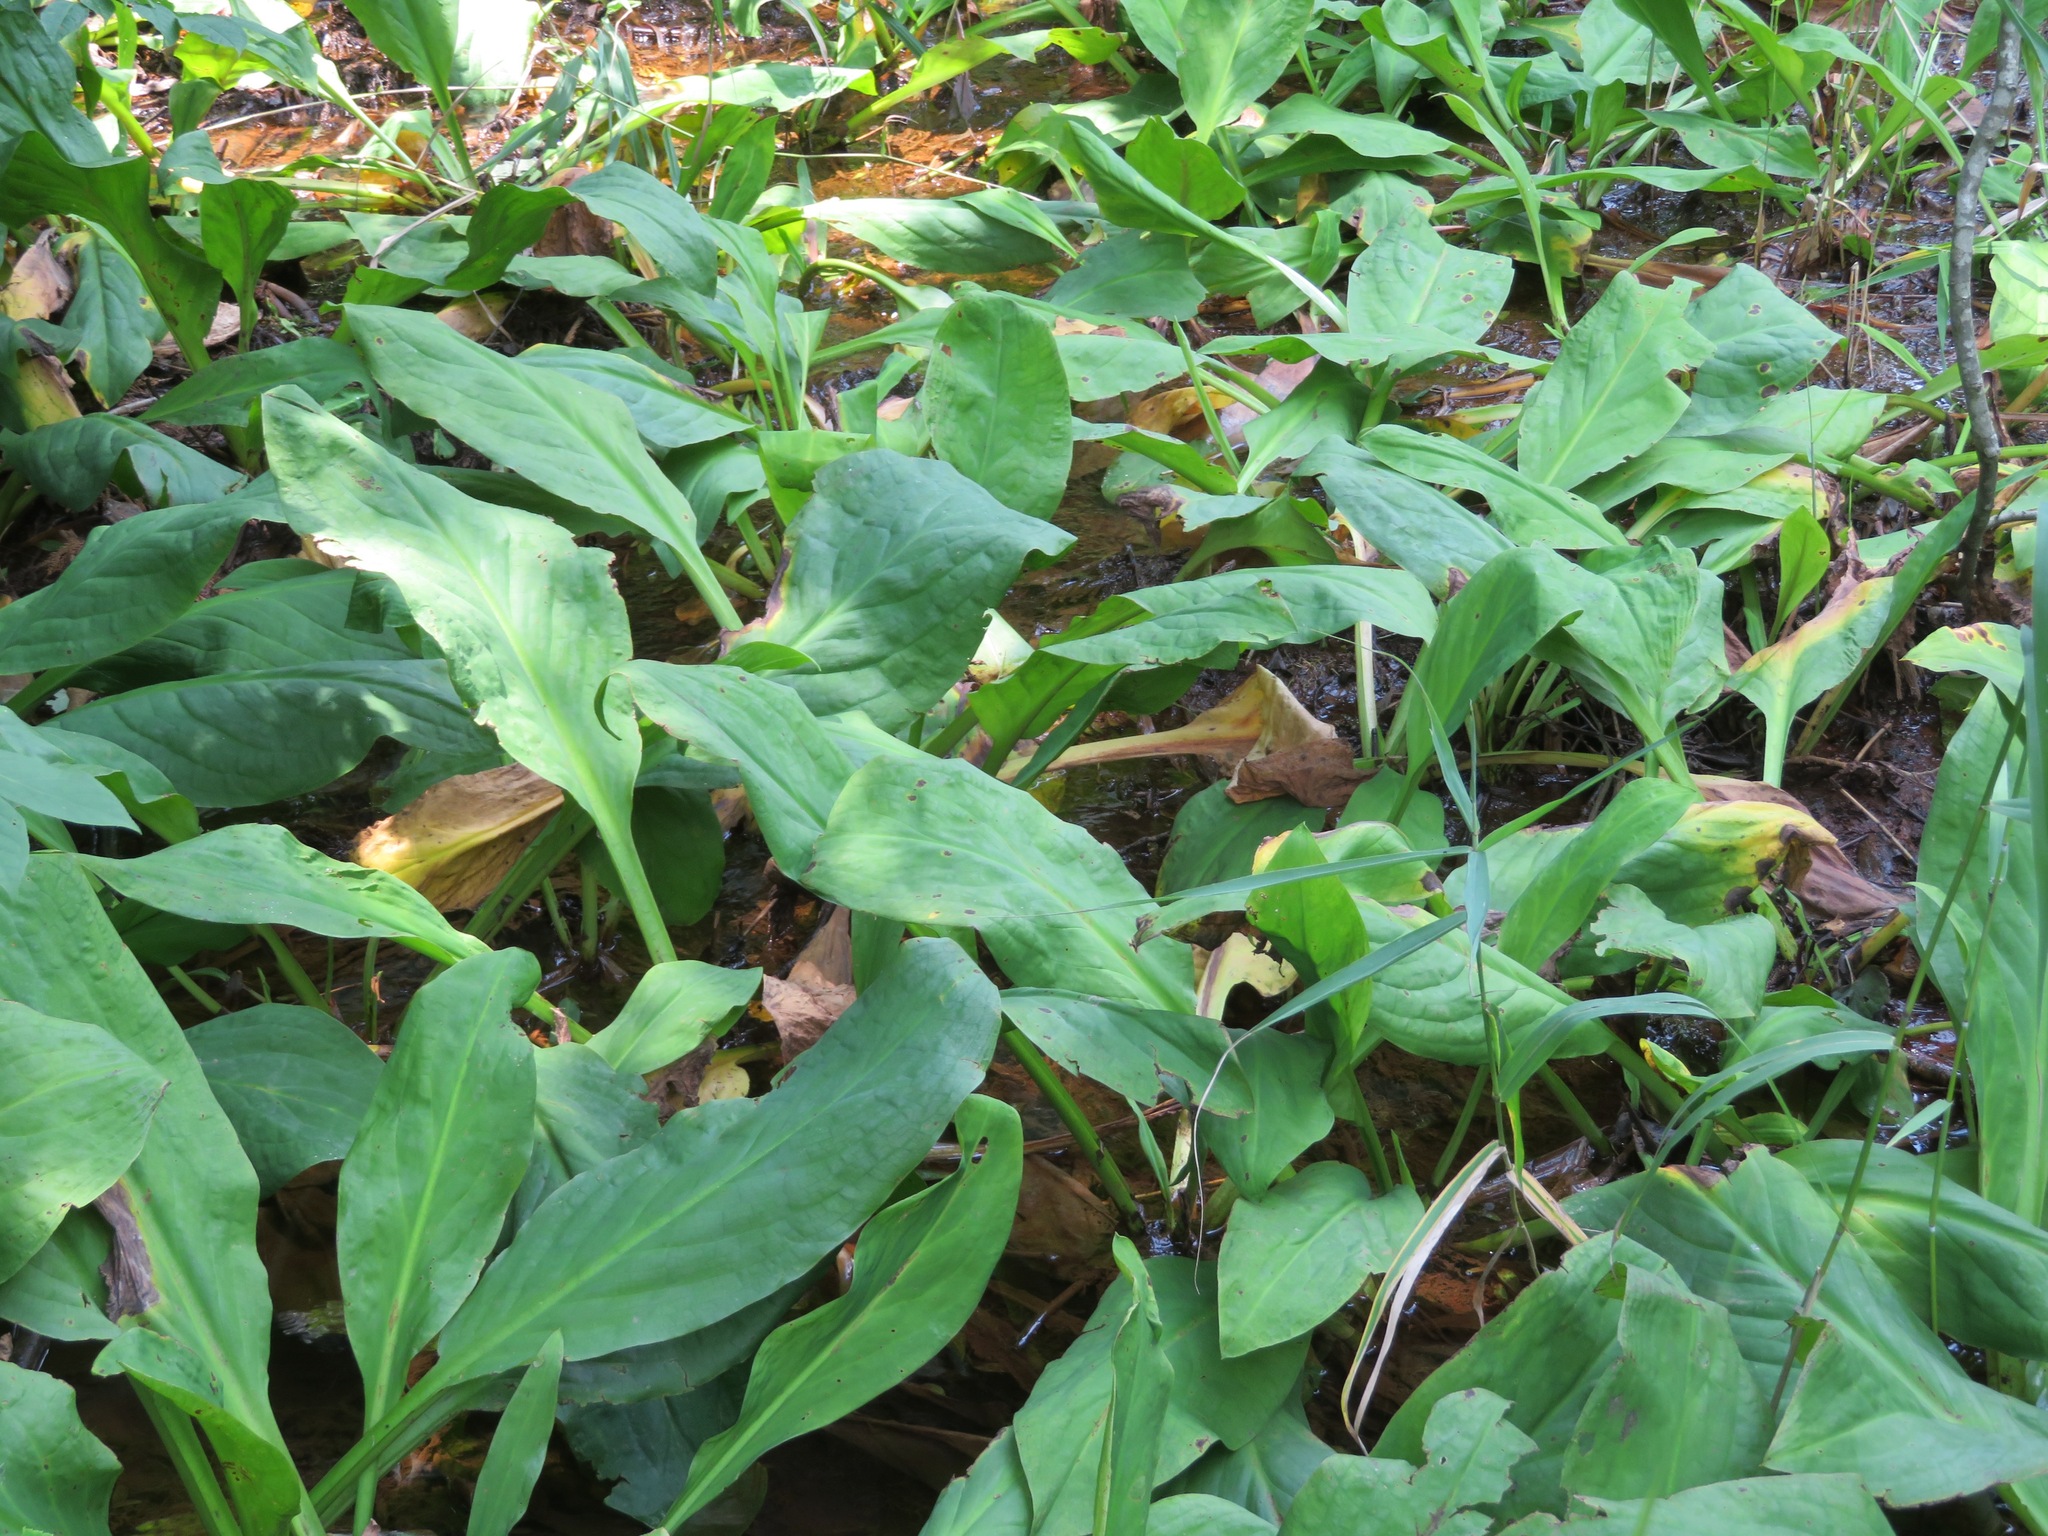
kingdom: Plantae
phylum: Tracheophyta
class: Liliopsida
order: Alismatales
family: Araceae
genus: Lysichiton
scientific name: Lysichiton camtschatcensis
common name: Asian skunk-cabbage
